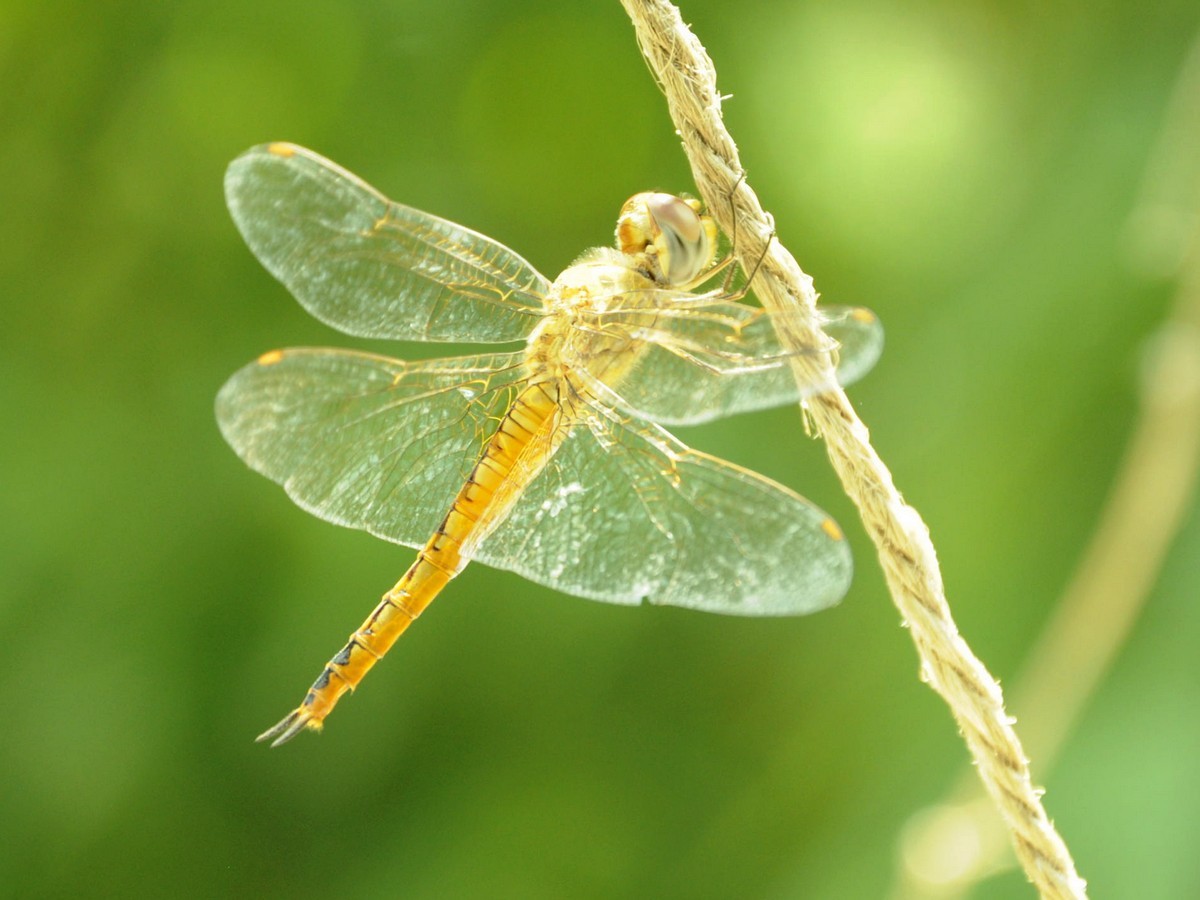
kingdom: Animalia
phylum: Arthropoda
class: Insecta
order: Odonata
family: Libellulidae
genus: Pantala
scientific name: Pantala flavescens
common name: Wandering glider
